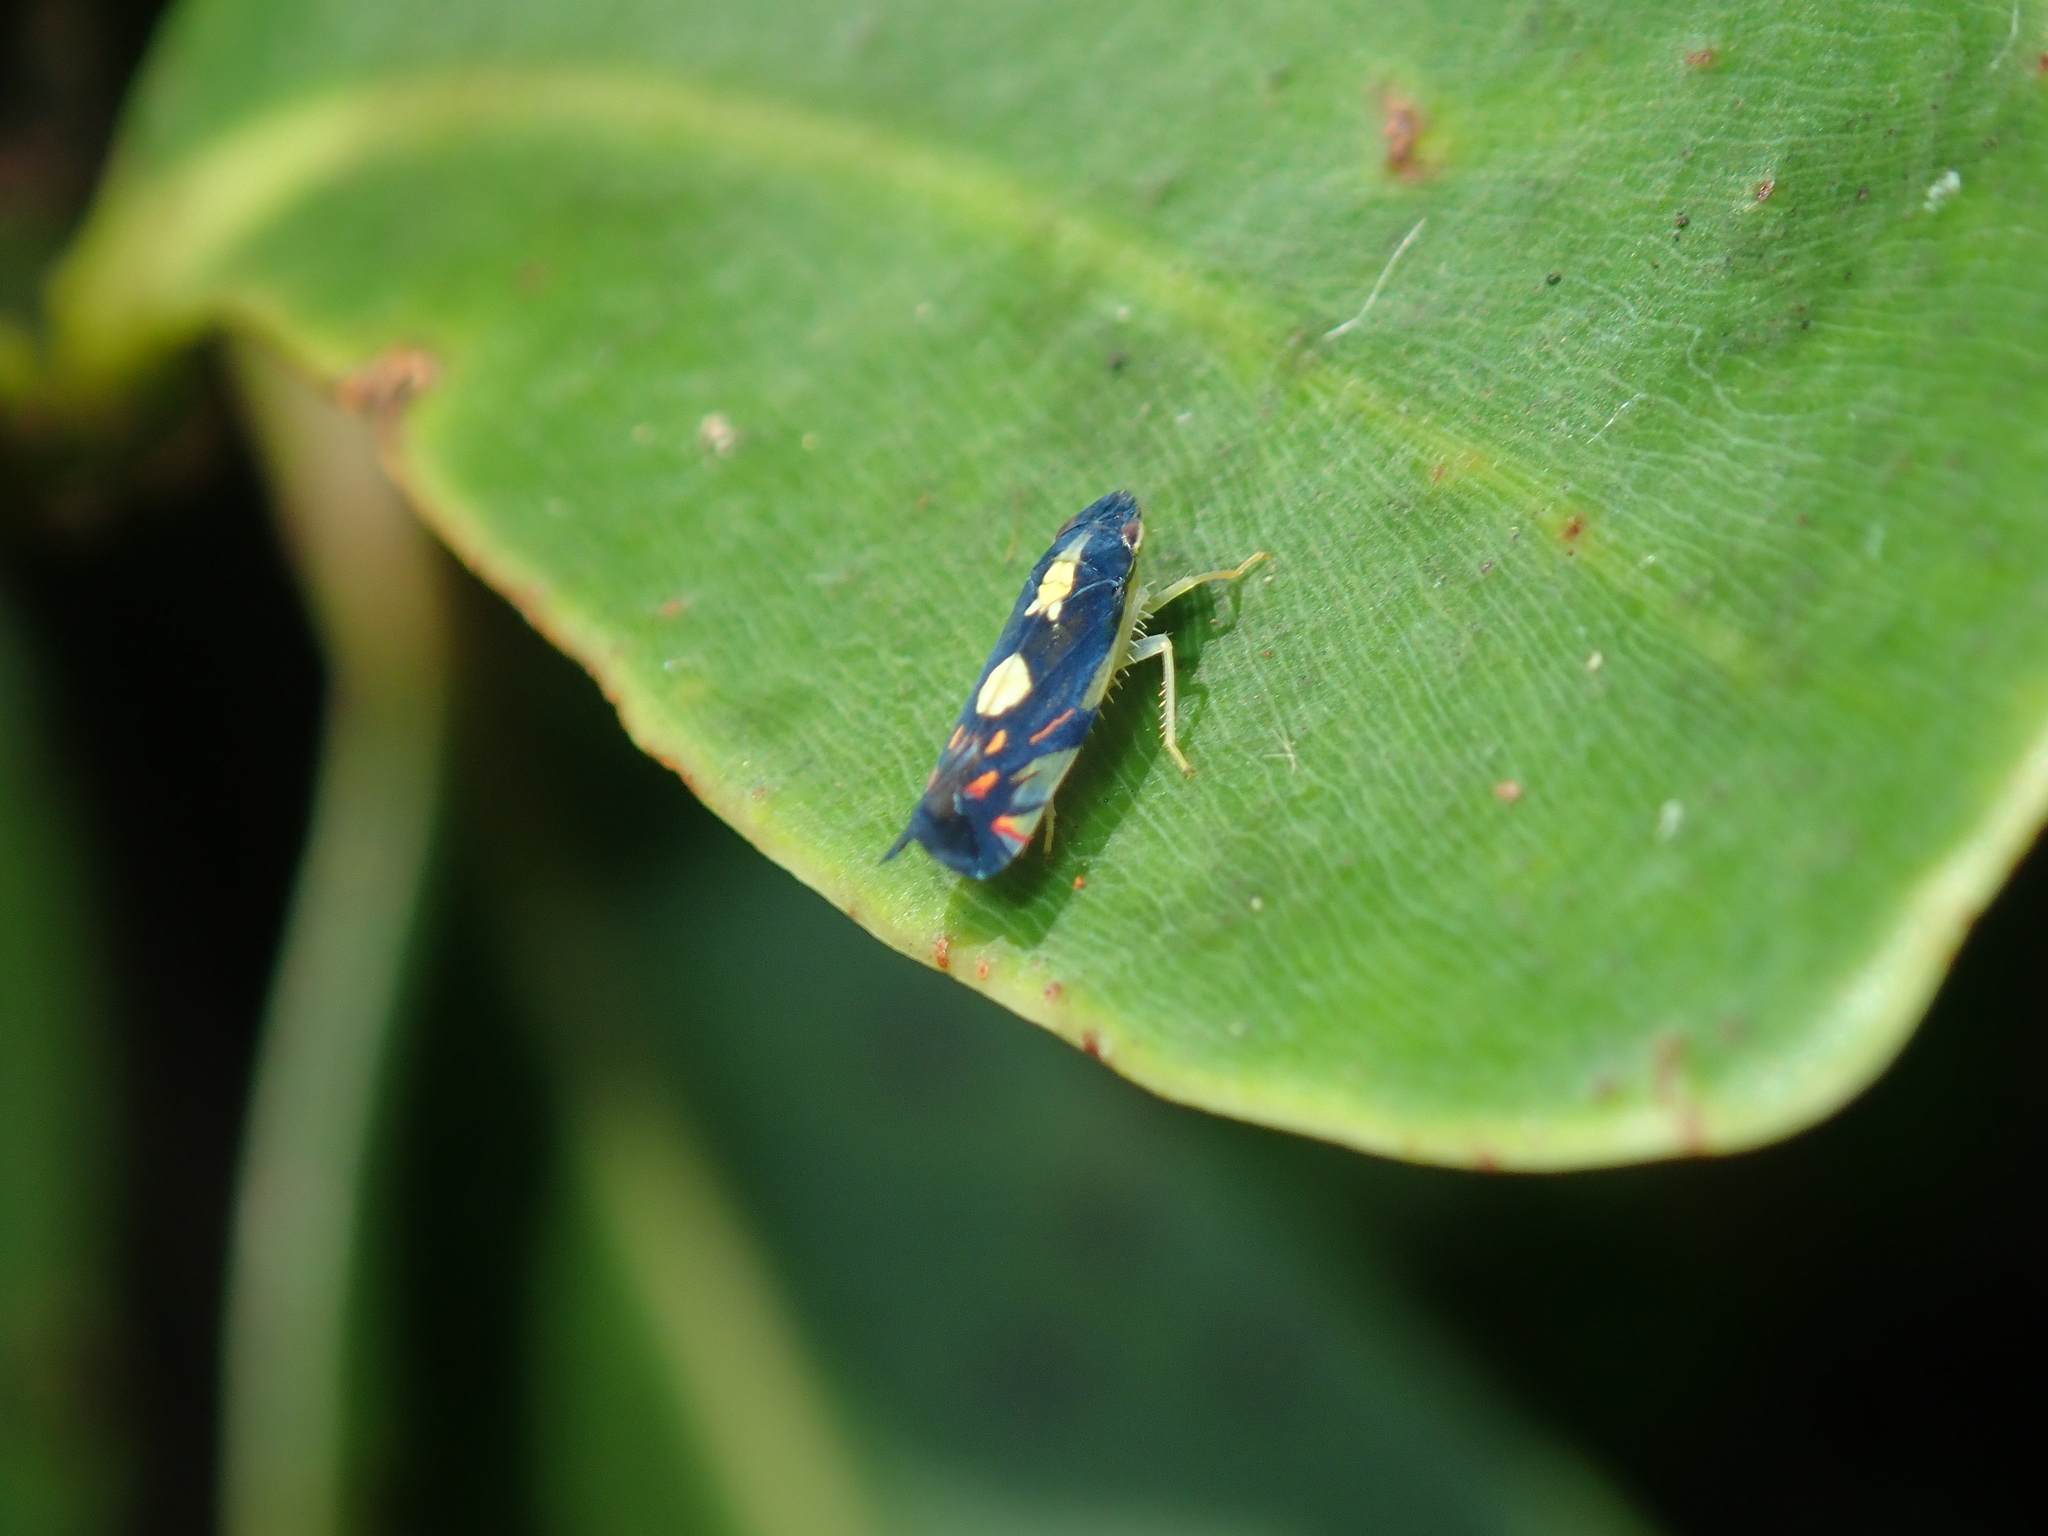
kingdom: Animalia
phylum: Arthropoda
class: Insecta
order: Hemiptera
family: Cicadellidae
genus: Diedrocephala
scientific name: Diedrocephala variegata
